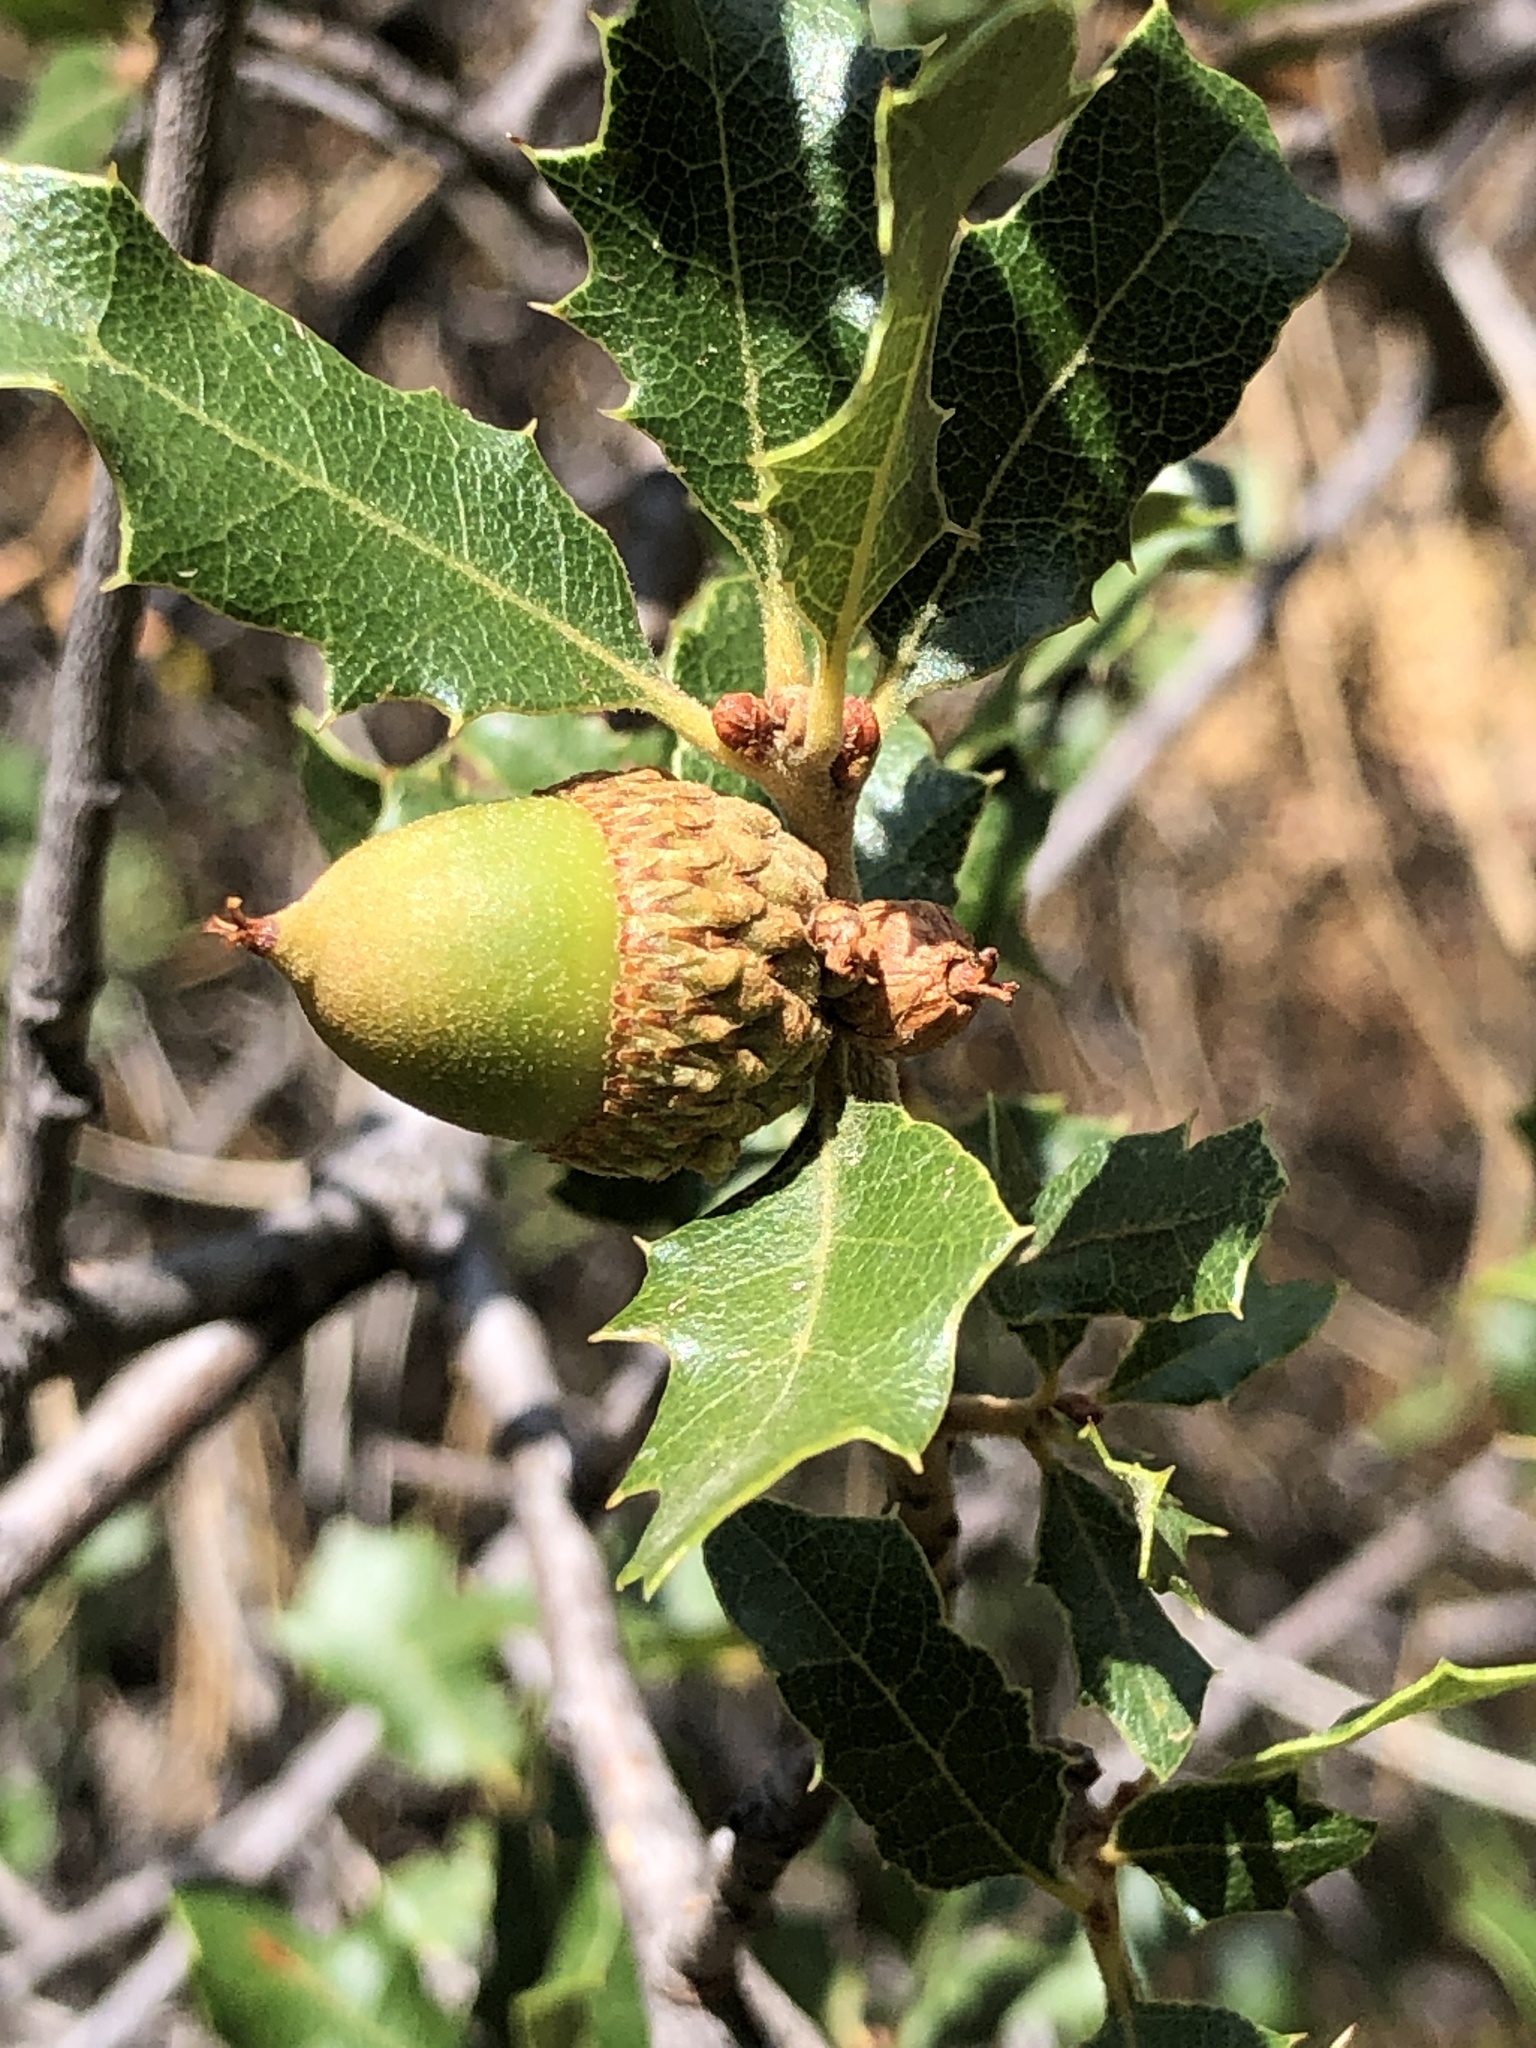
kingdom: Plantae
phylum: Tracheophyta
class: Magnoliopsida
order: Fagales
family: Fagaceae
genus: Quercus
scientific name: Quercus berberidifolia
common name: California scrub oak
